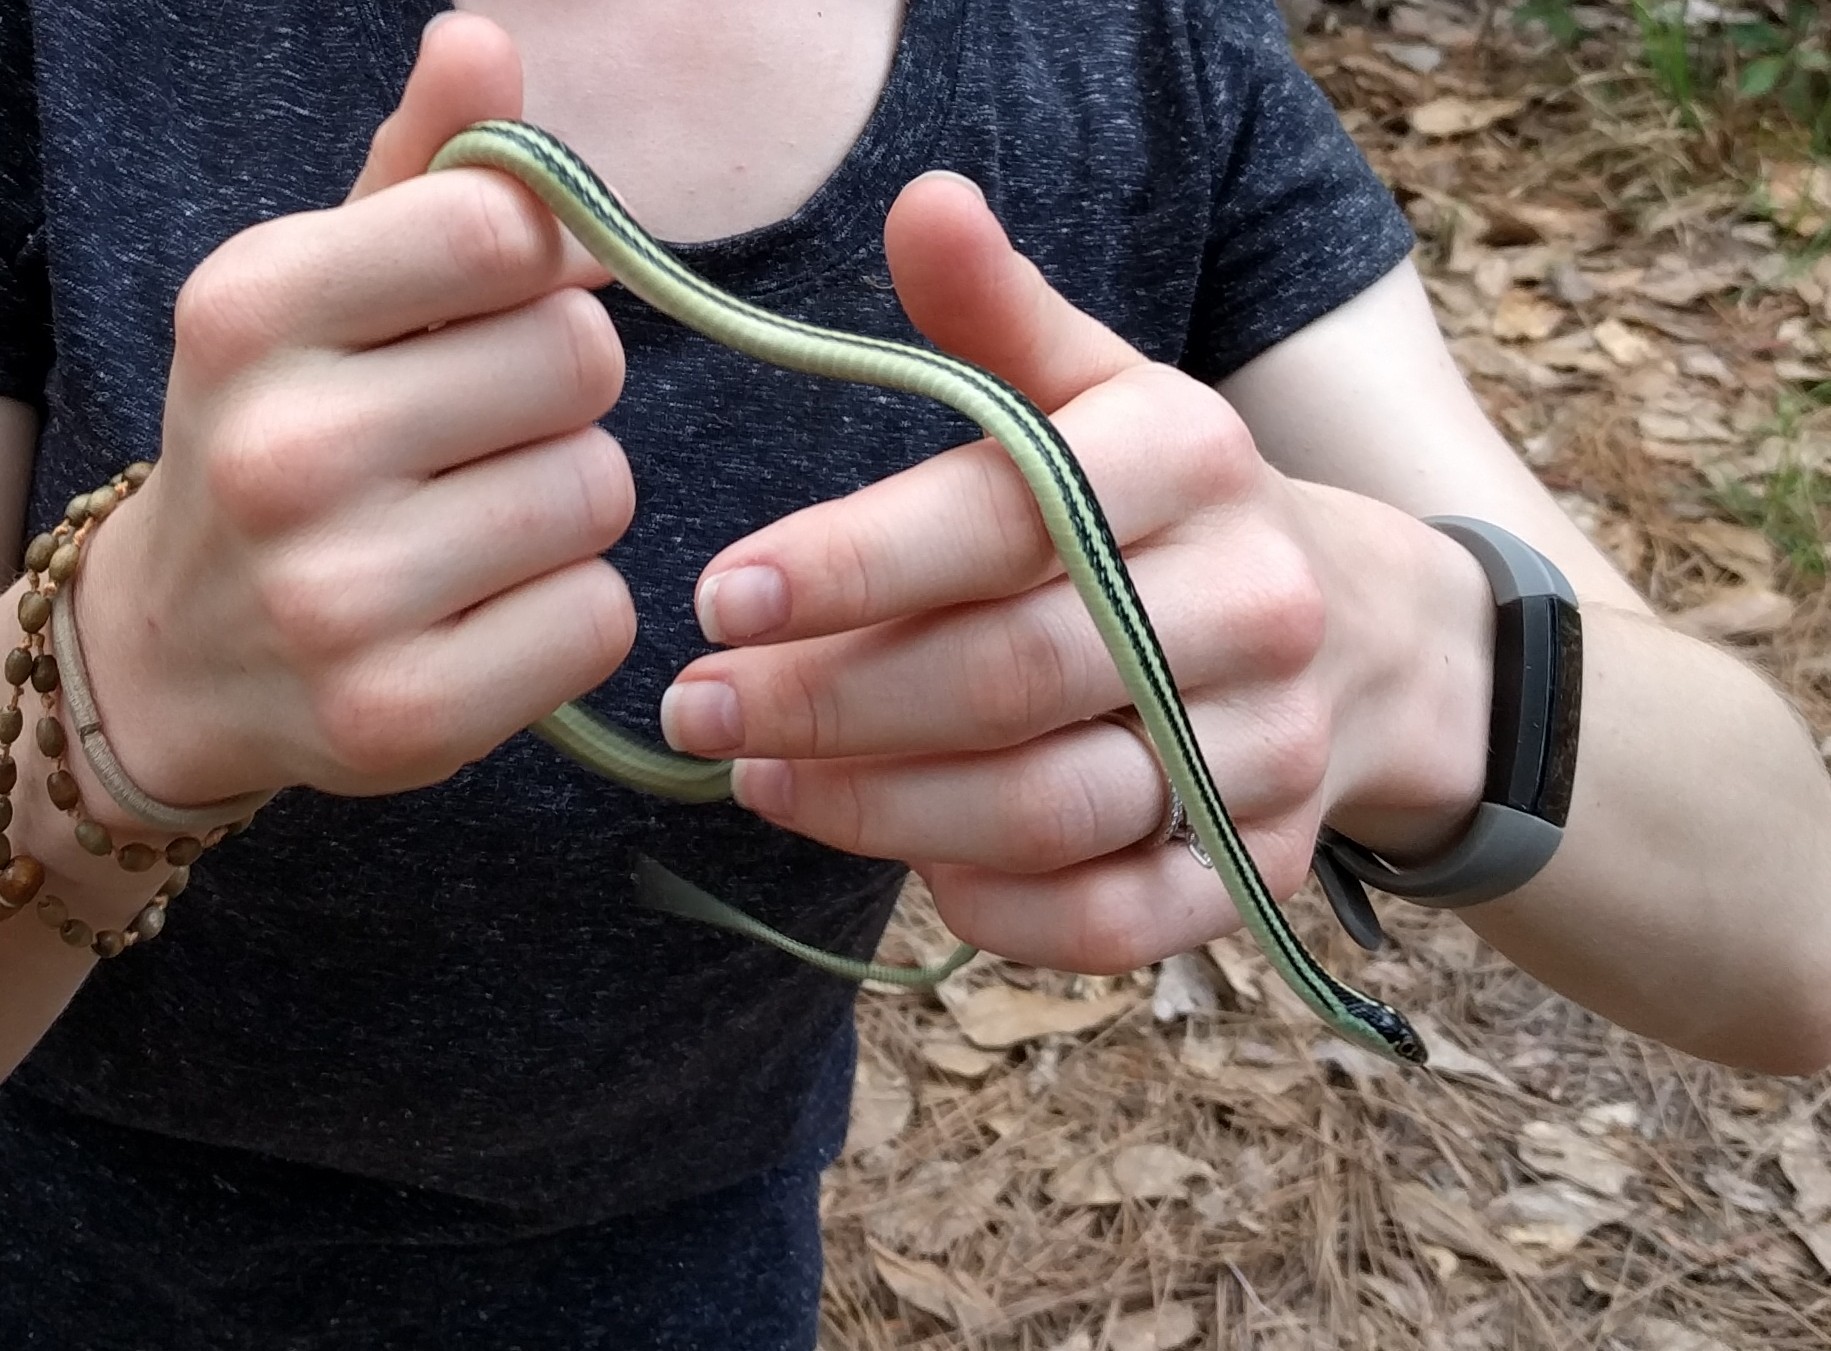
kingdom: Animalia
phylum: Chordata
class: Squamata
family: Colubridae
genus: Thamnophis
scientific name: Thamnophis proximus
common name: Western ribbon snake
